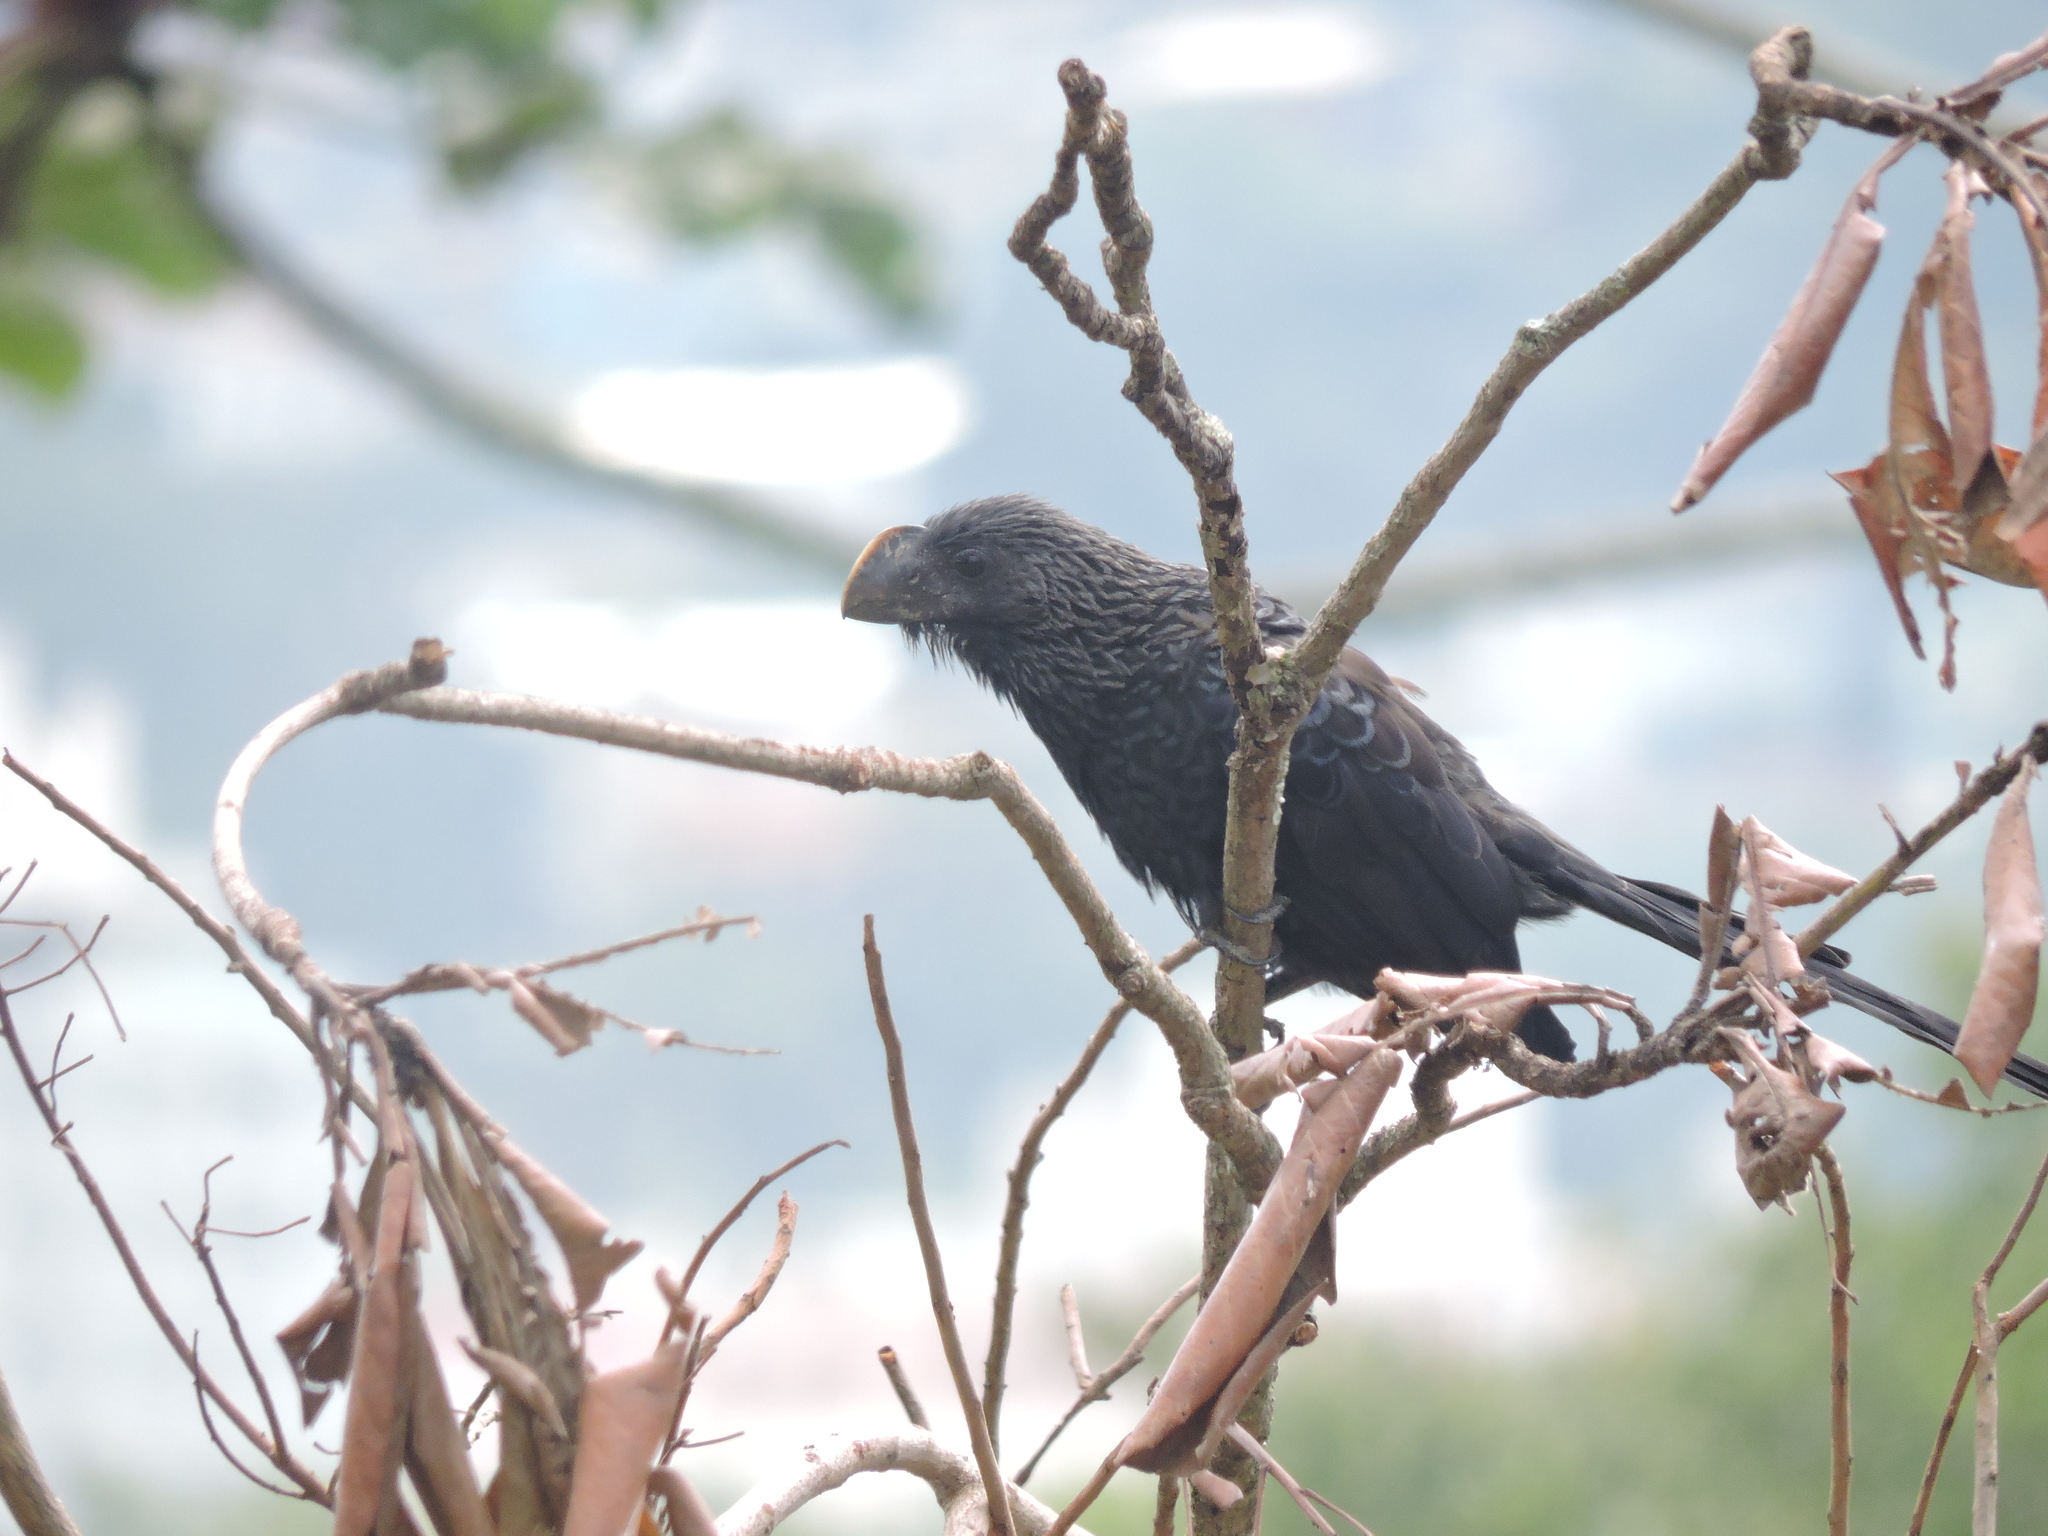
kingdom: Animalia
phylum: Chordata
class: Aves
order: Cuculiformes
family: Cuculidae
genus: Crotophaga
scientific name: Crotophaga ani
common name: Smooth-billed ani
